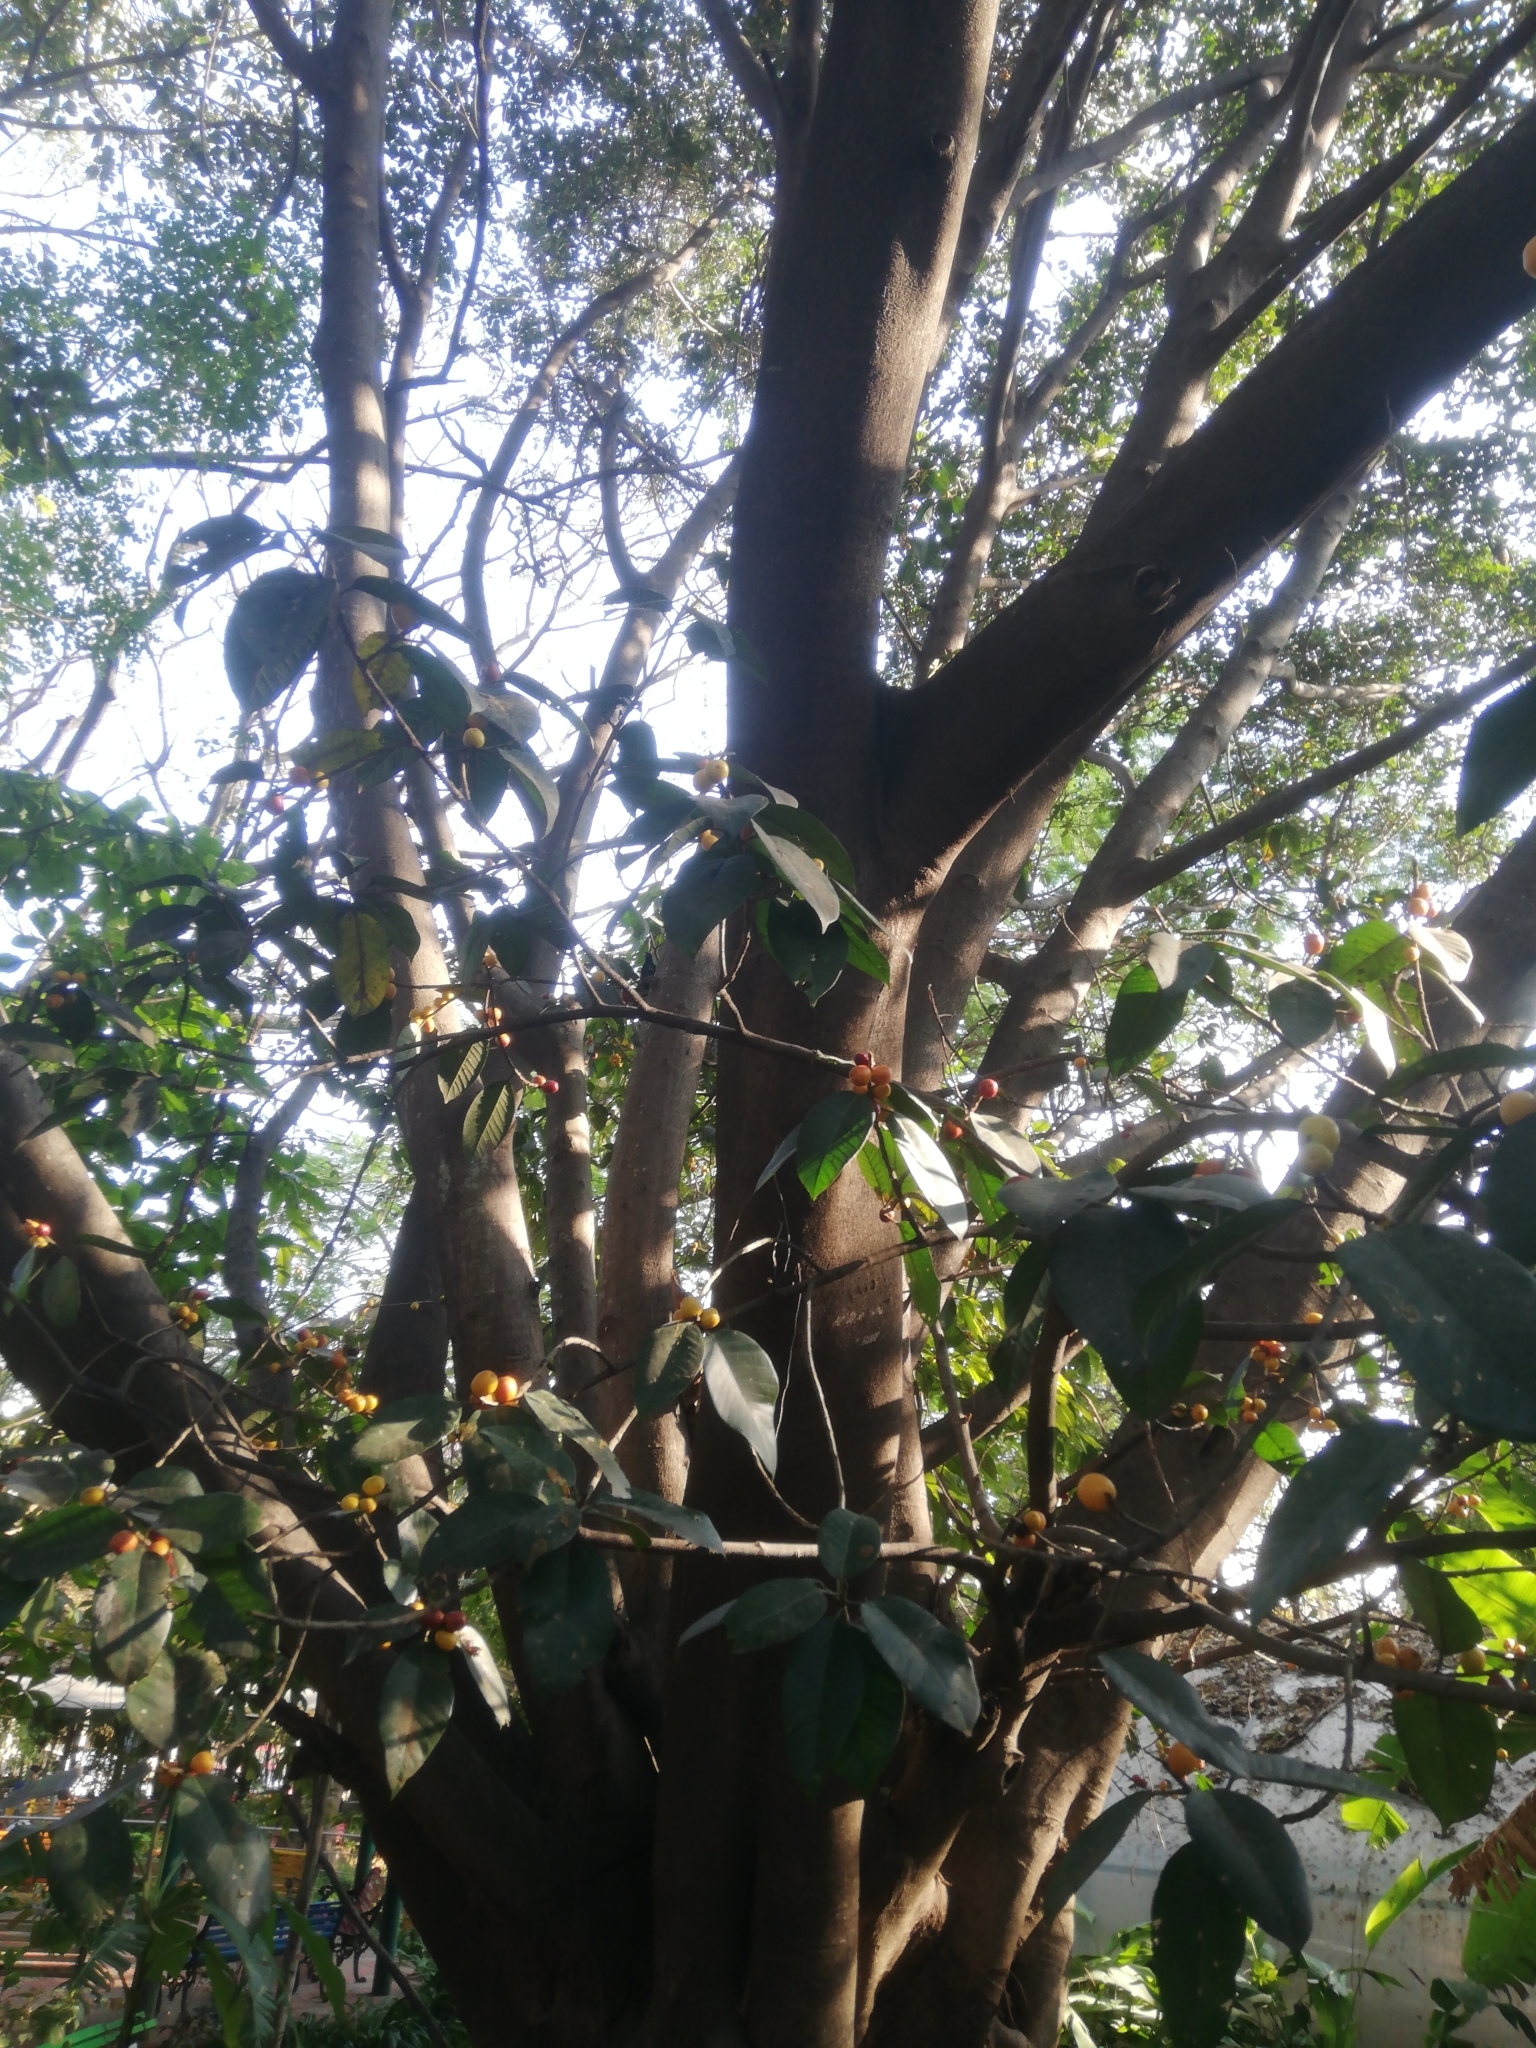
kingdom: Plantae
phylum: Tracheophyta
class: Magnoliopsida
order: Rosales
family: Moraceae
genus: Ficus
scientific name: Ficus drupacea
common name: Drupe fig
